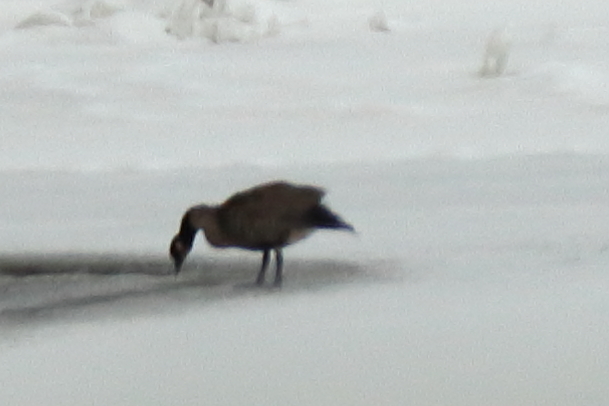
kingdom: Animalia
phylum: Chordata
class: Aves
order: Anseriformes
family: Anatidae
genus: Branta
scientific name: Branta canadensis
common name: Canada goose
